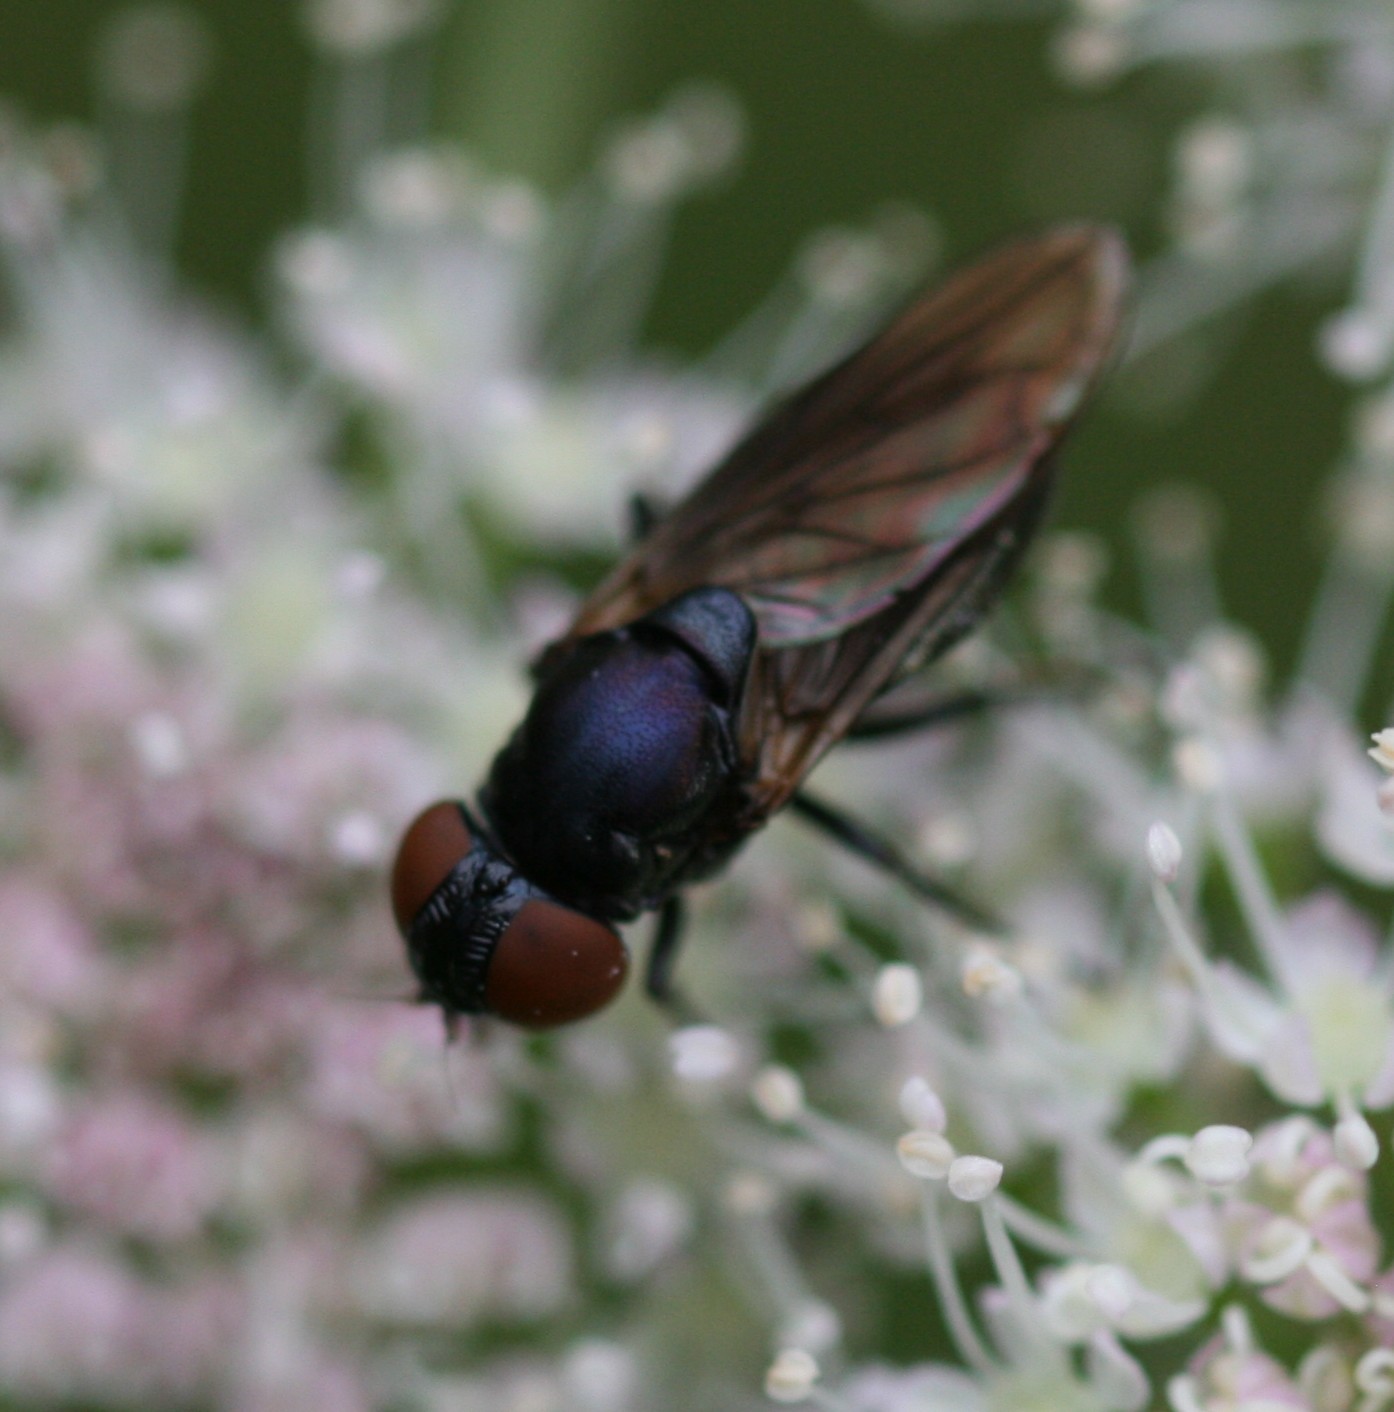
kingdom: Animalia
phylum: Arthropoda
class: Insecta
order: Diptera
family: Syrphidae
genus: Chrysogaster
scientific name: Chrysogaster solstitialis
